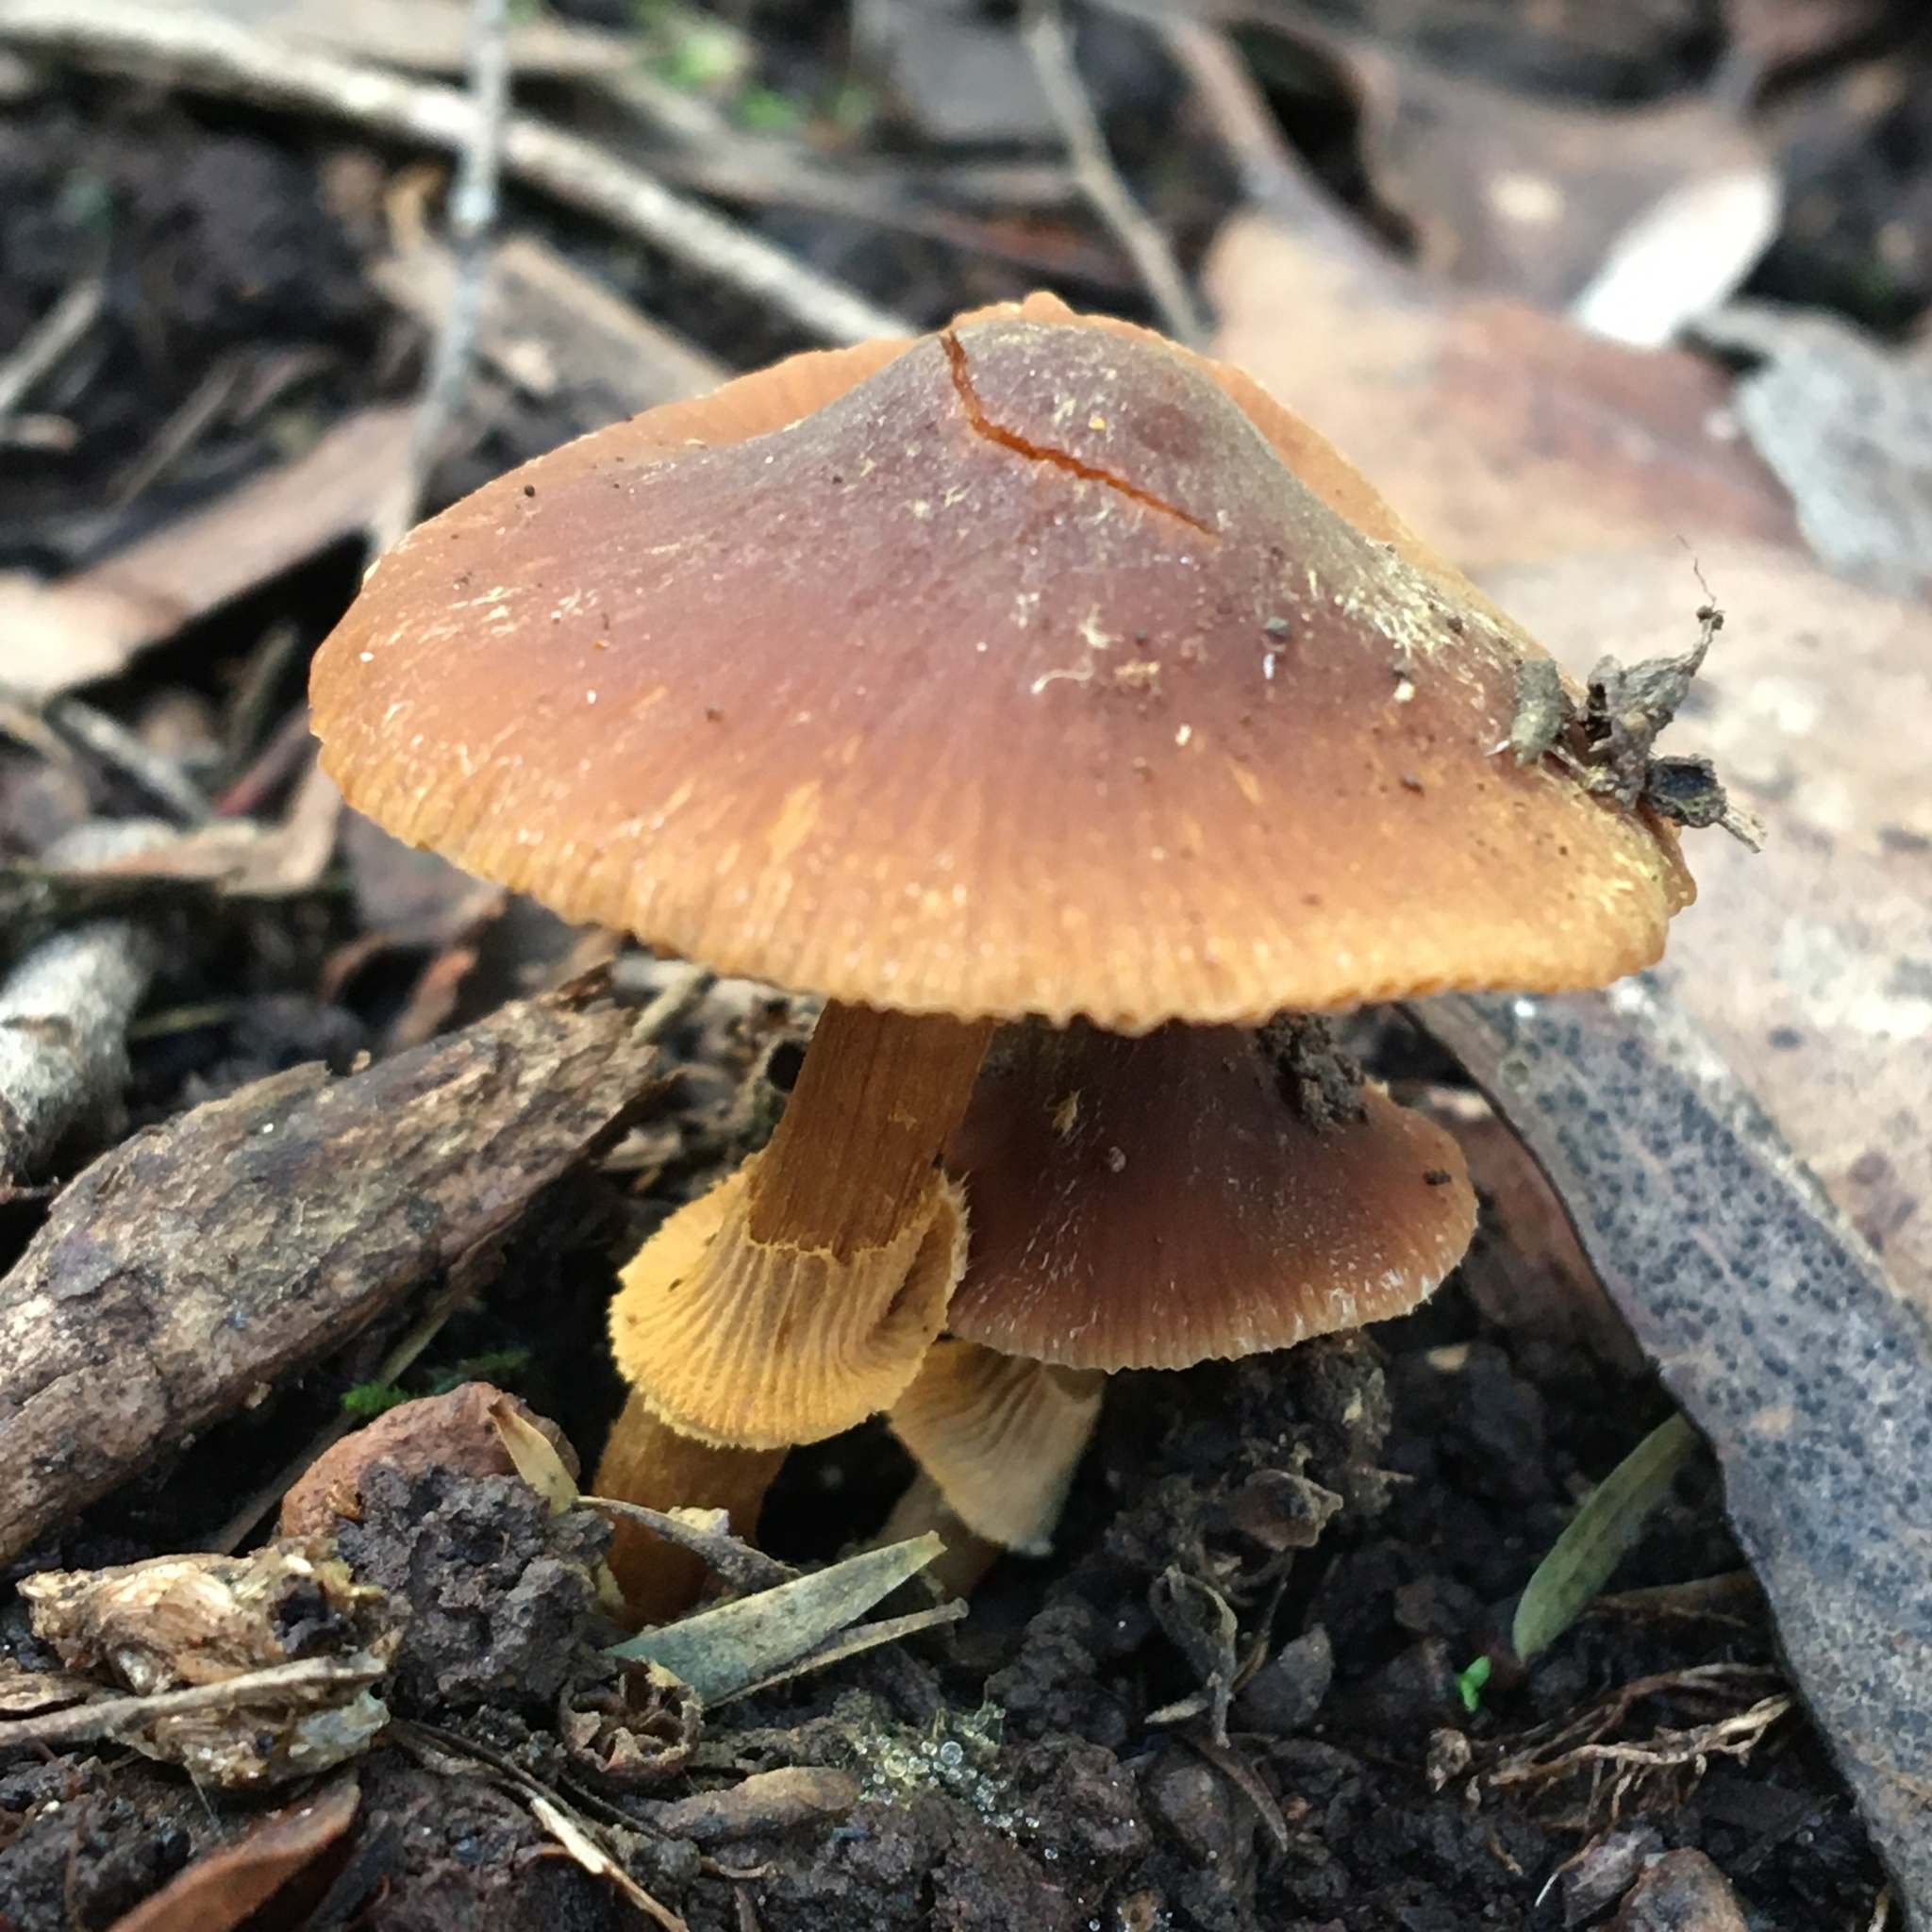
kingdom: Fungi
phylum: Basidiomycota
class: Agaricomycetes
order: Agaricales
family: Bolbitiaceae
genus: Descolea
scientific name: Descolea recedens
